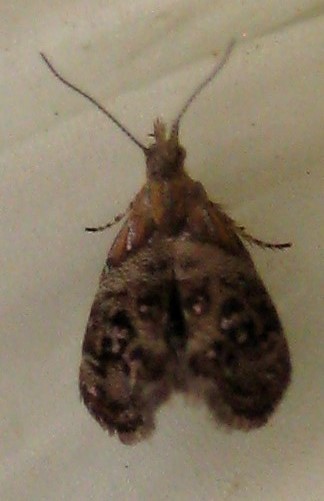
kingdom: Animalia
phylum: Arthropoda
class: Insecta
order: Lepidoptera
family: Choreutidae
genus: Tebenna
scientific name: Tebenna gnaphaliella
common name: Everlasting tebenna moth
